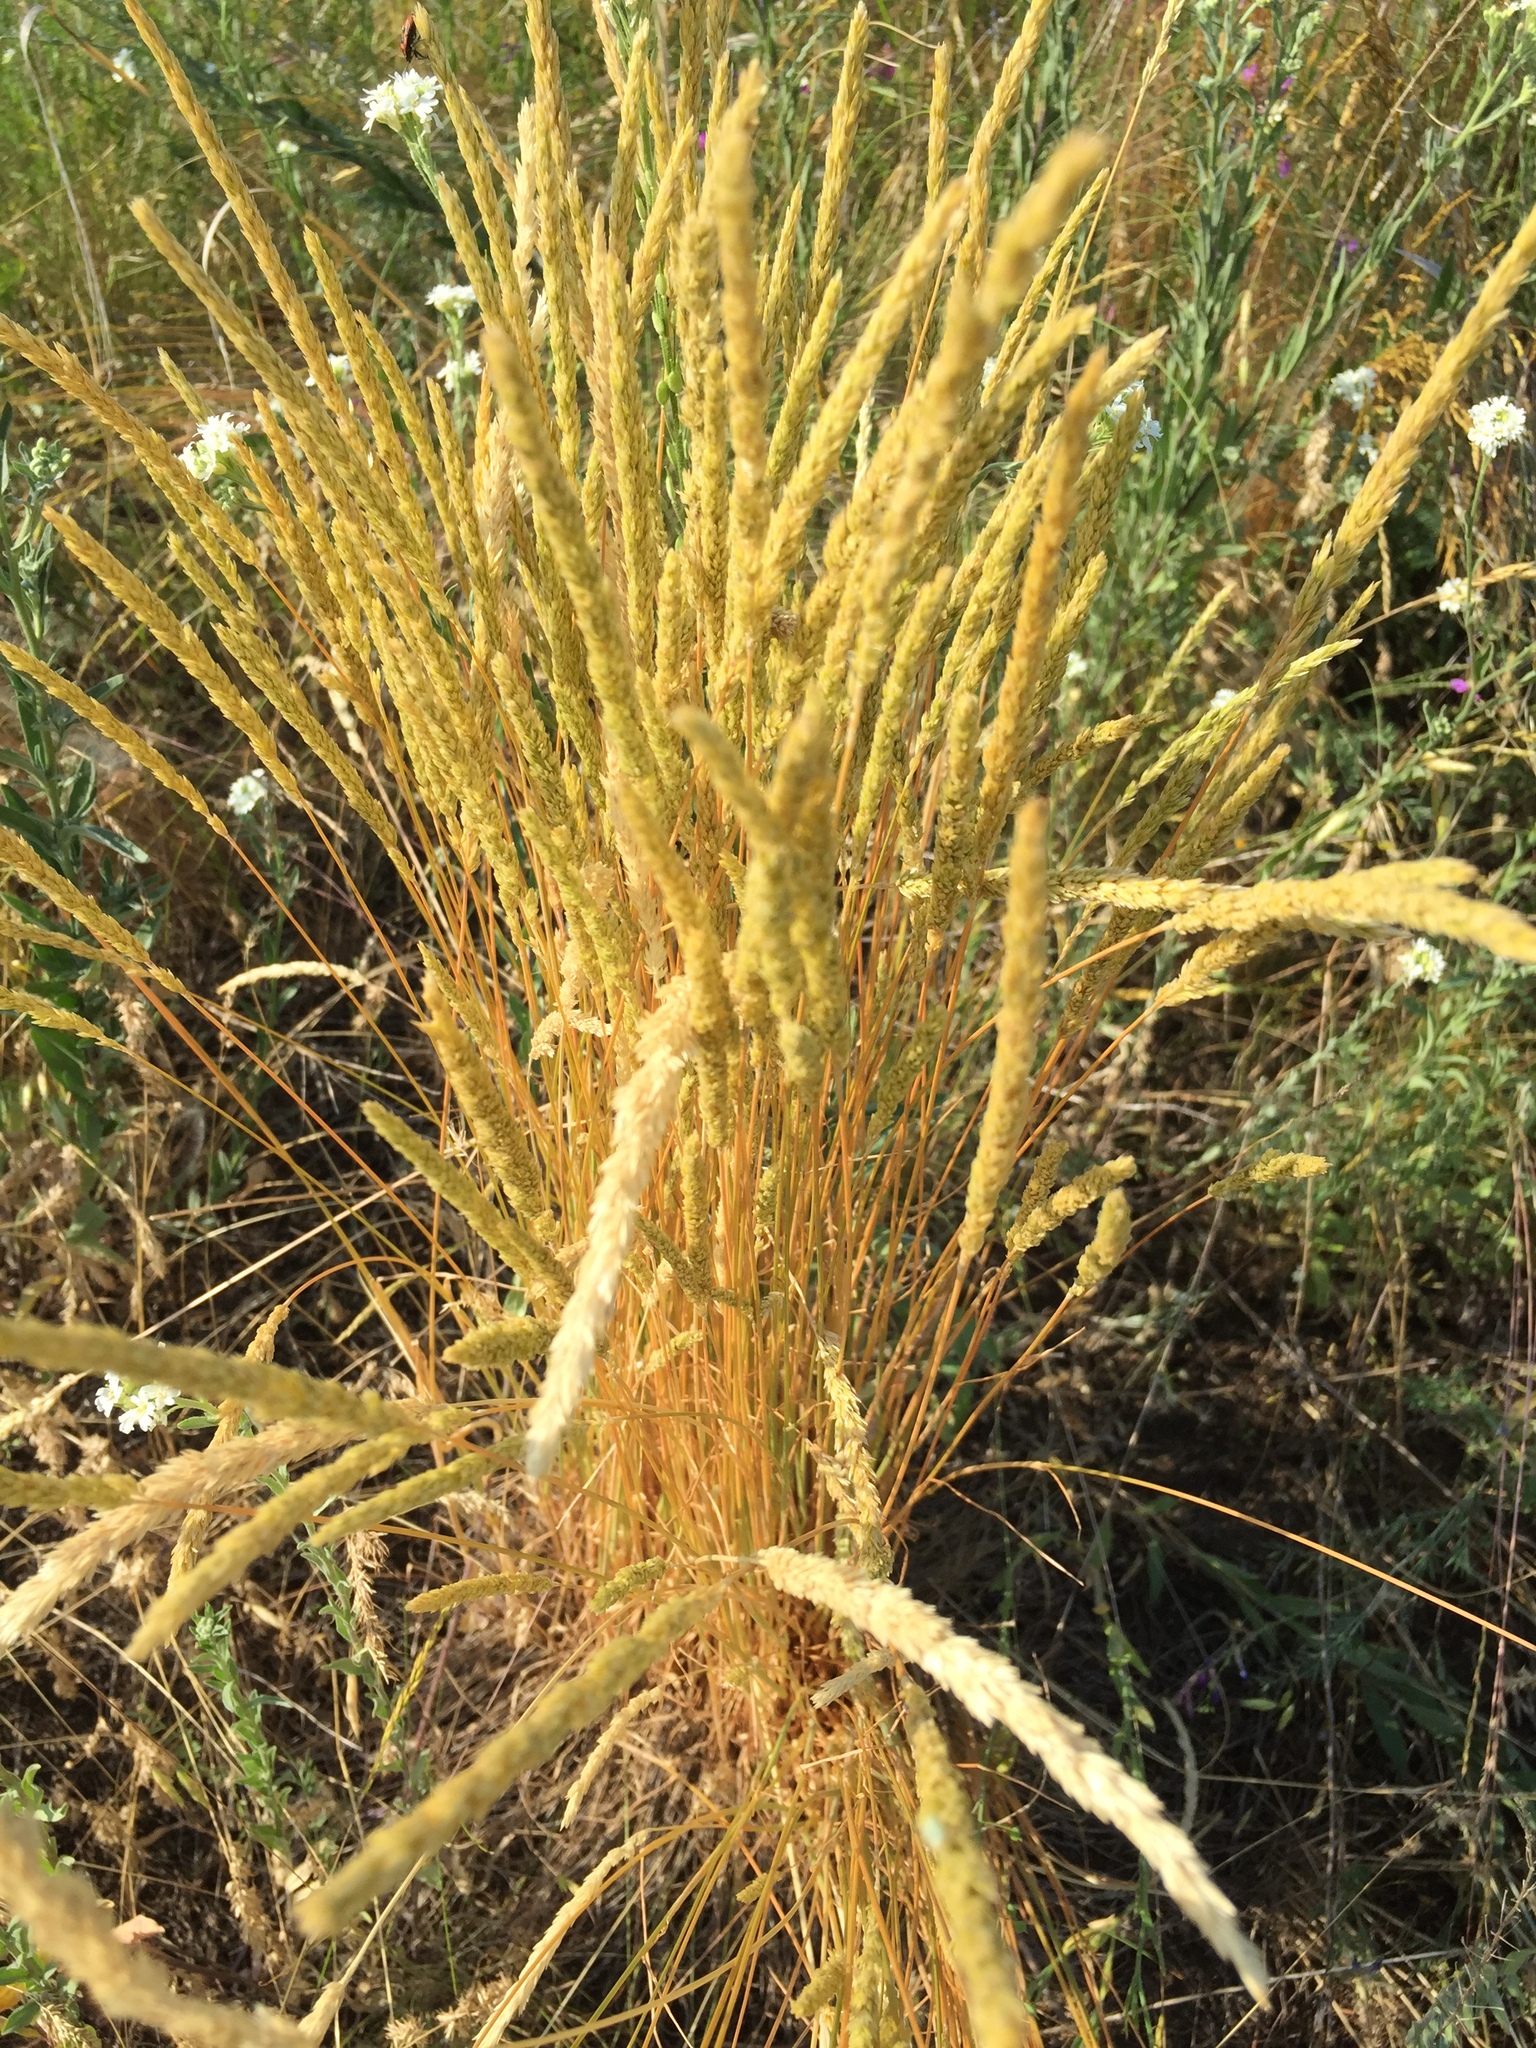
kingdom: Plantae
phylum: Tracheophyta
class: Liliopsida
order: Poales
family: Poaceae
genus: Koeleria
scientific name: Koeleria macrantha
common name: Crested hair-grass
